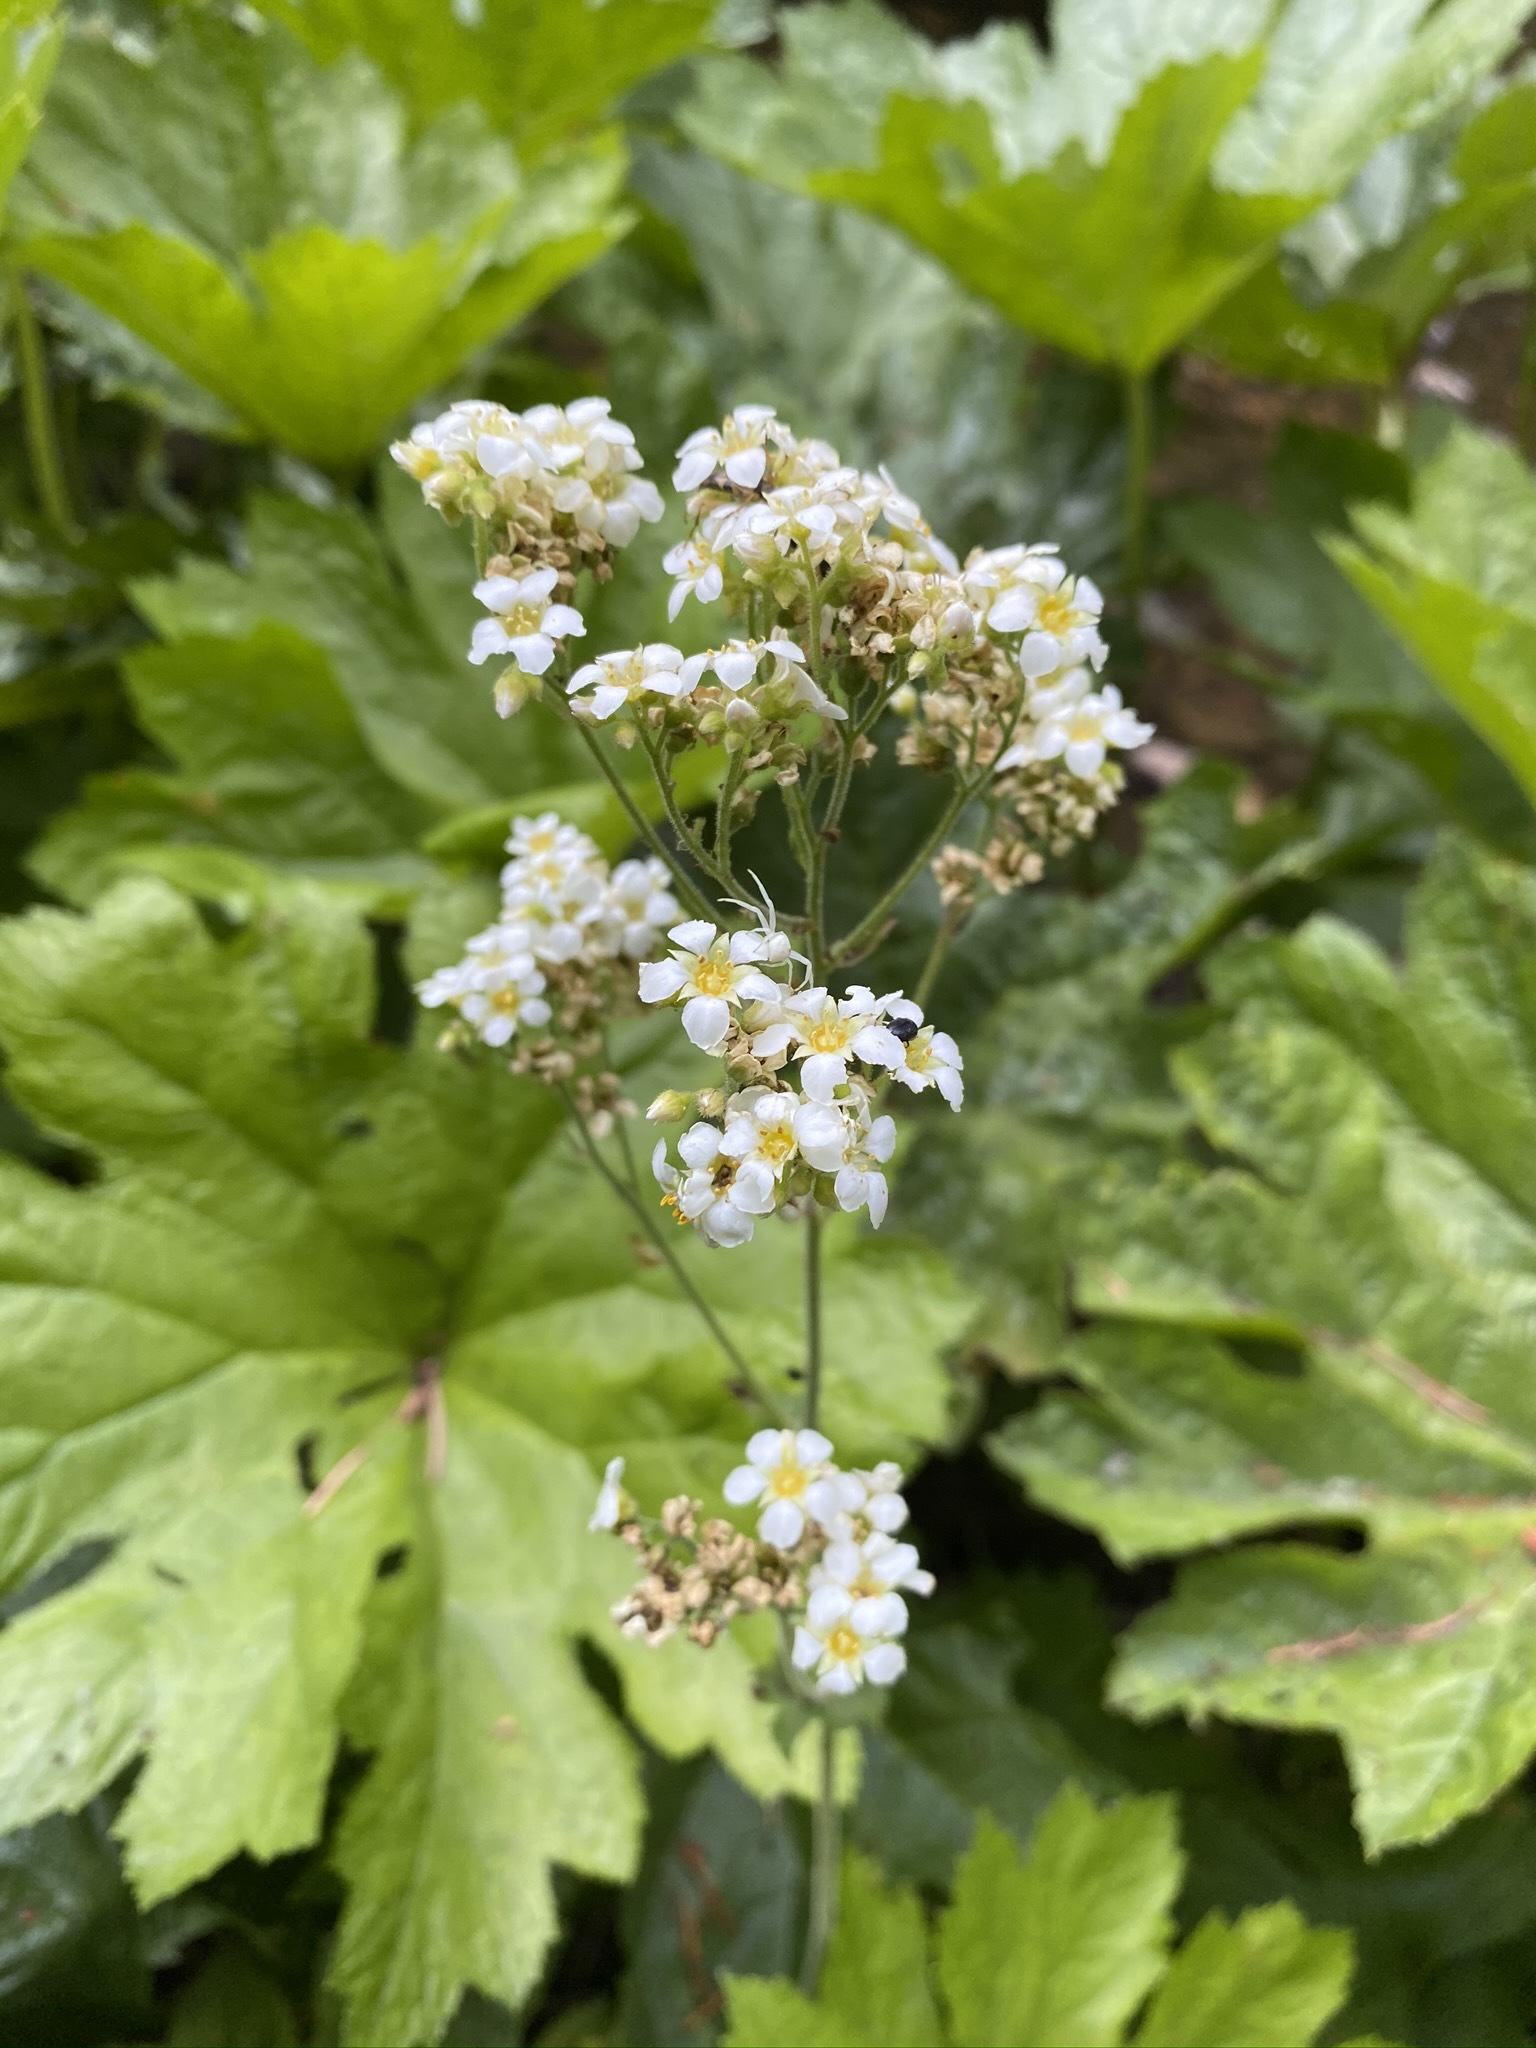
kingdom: Plantae
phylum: Tracheophyta
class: Magnoliopsida
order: Saxifragales
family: Saxifragaceae
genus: Boykinia
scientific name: Boykinia major
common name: Large boykinia
